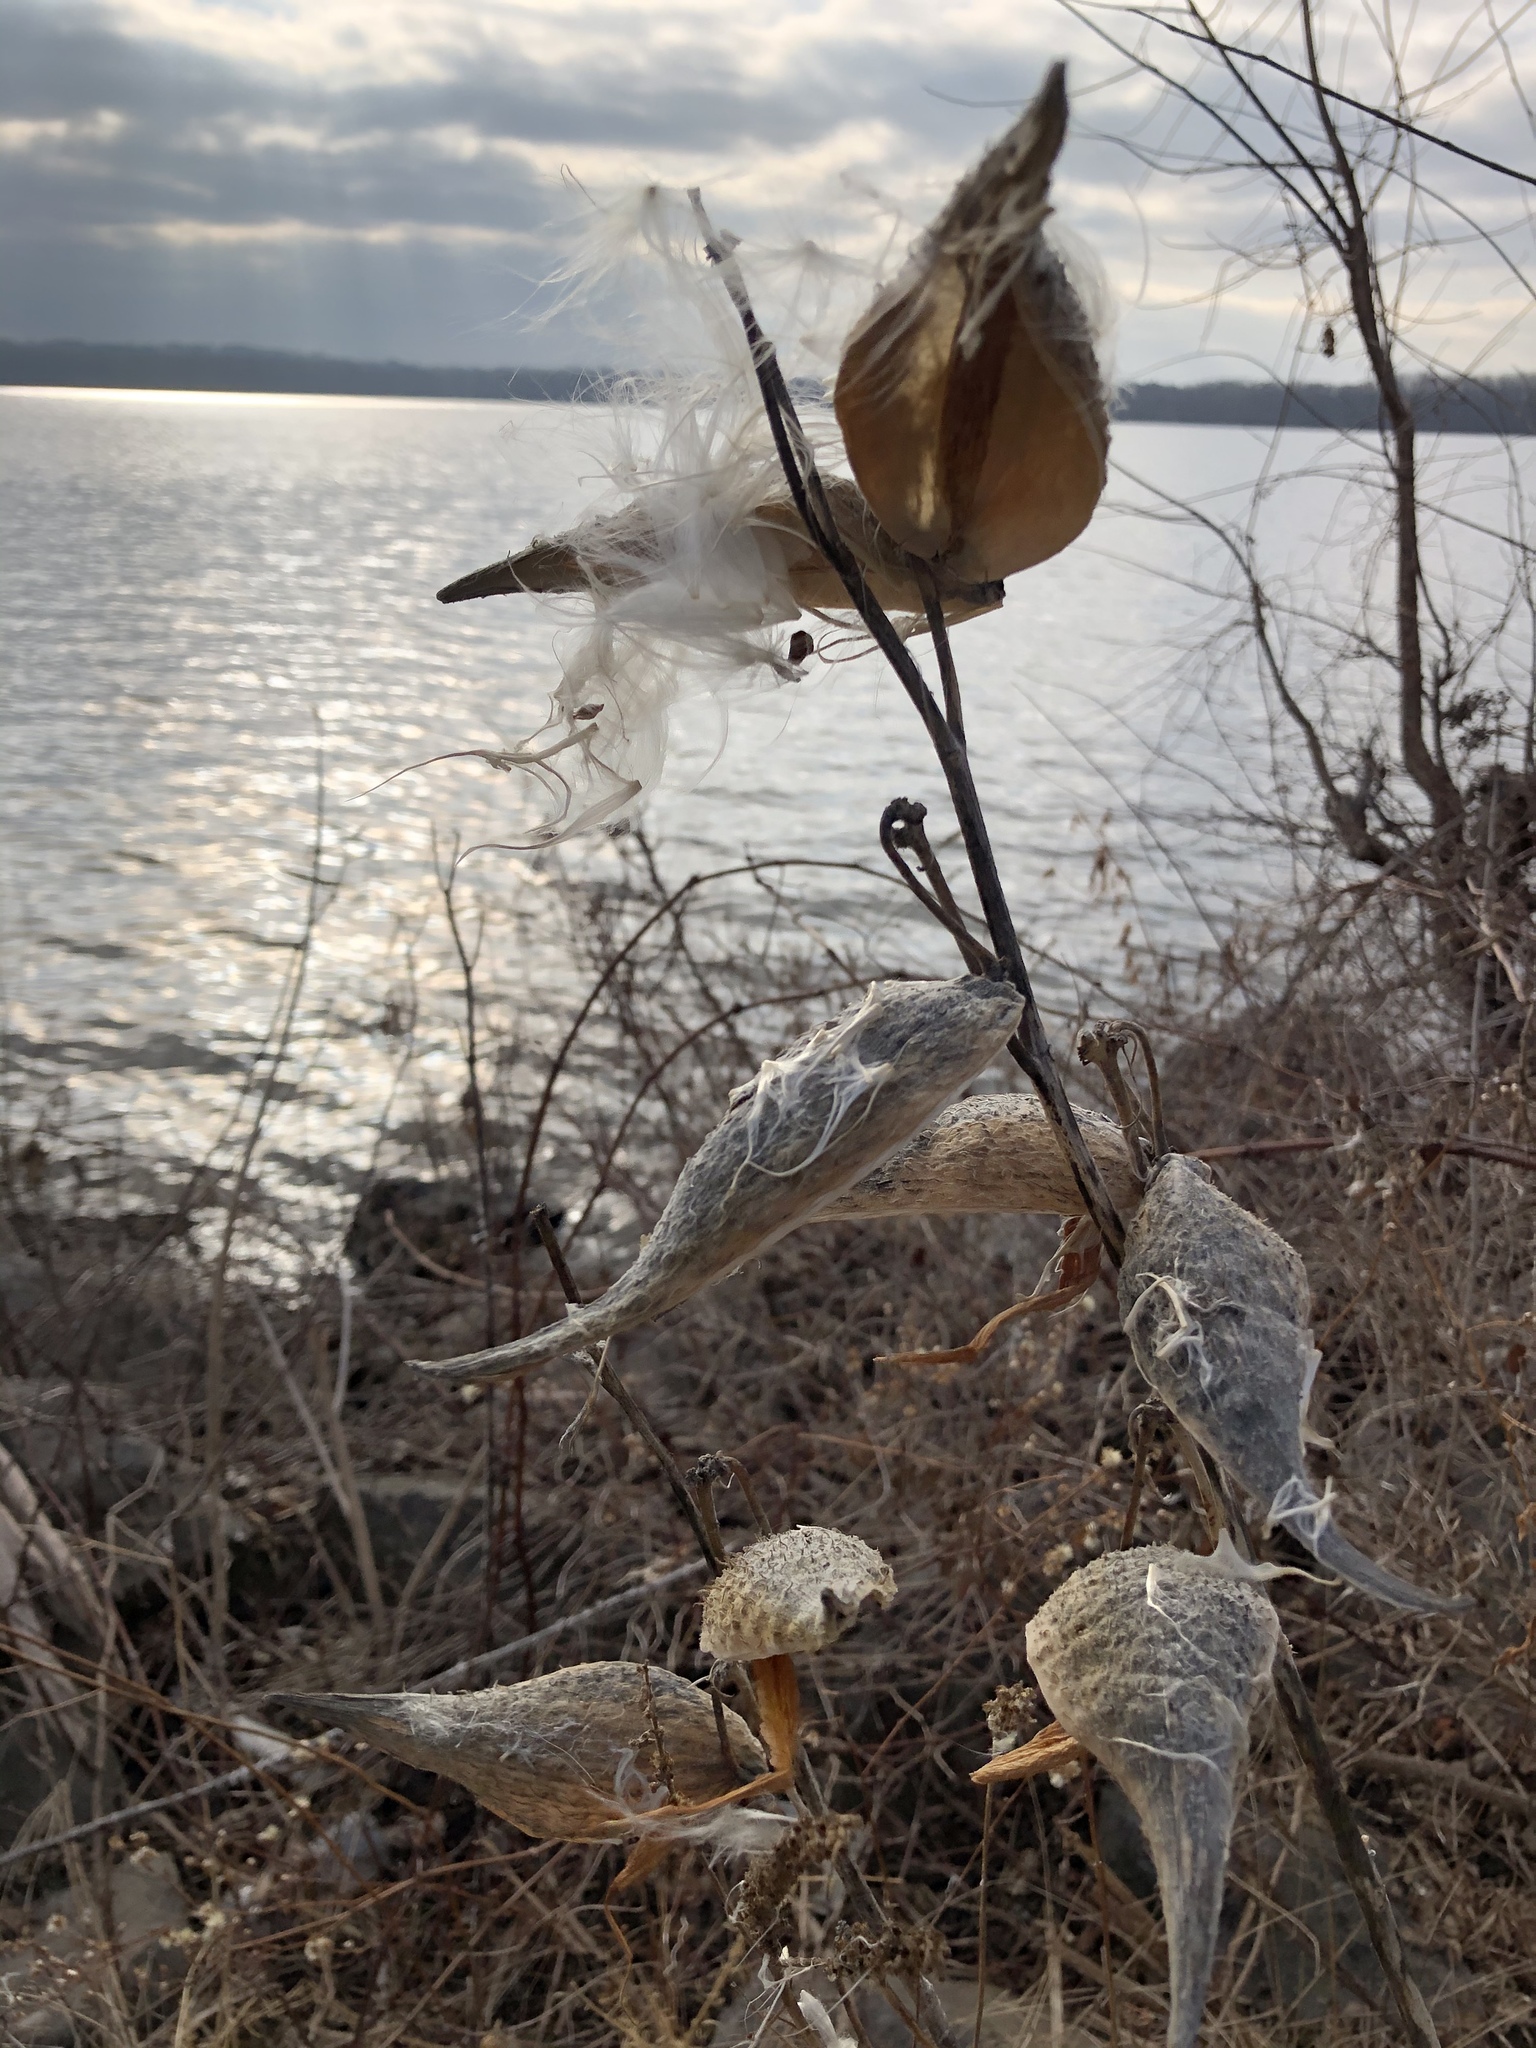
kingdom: Plantae
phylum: Tracheophyta
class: Magnoliopsida
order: Gentianales
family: Apocynaceae
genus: Asclepias
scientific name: Asclepias syriaca
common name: Common milkweed
